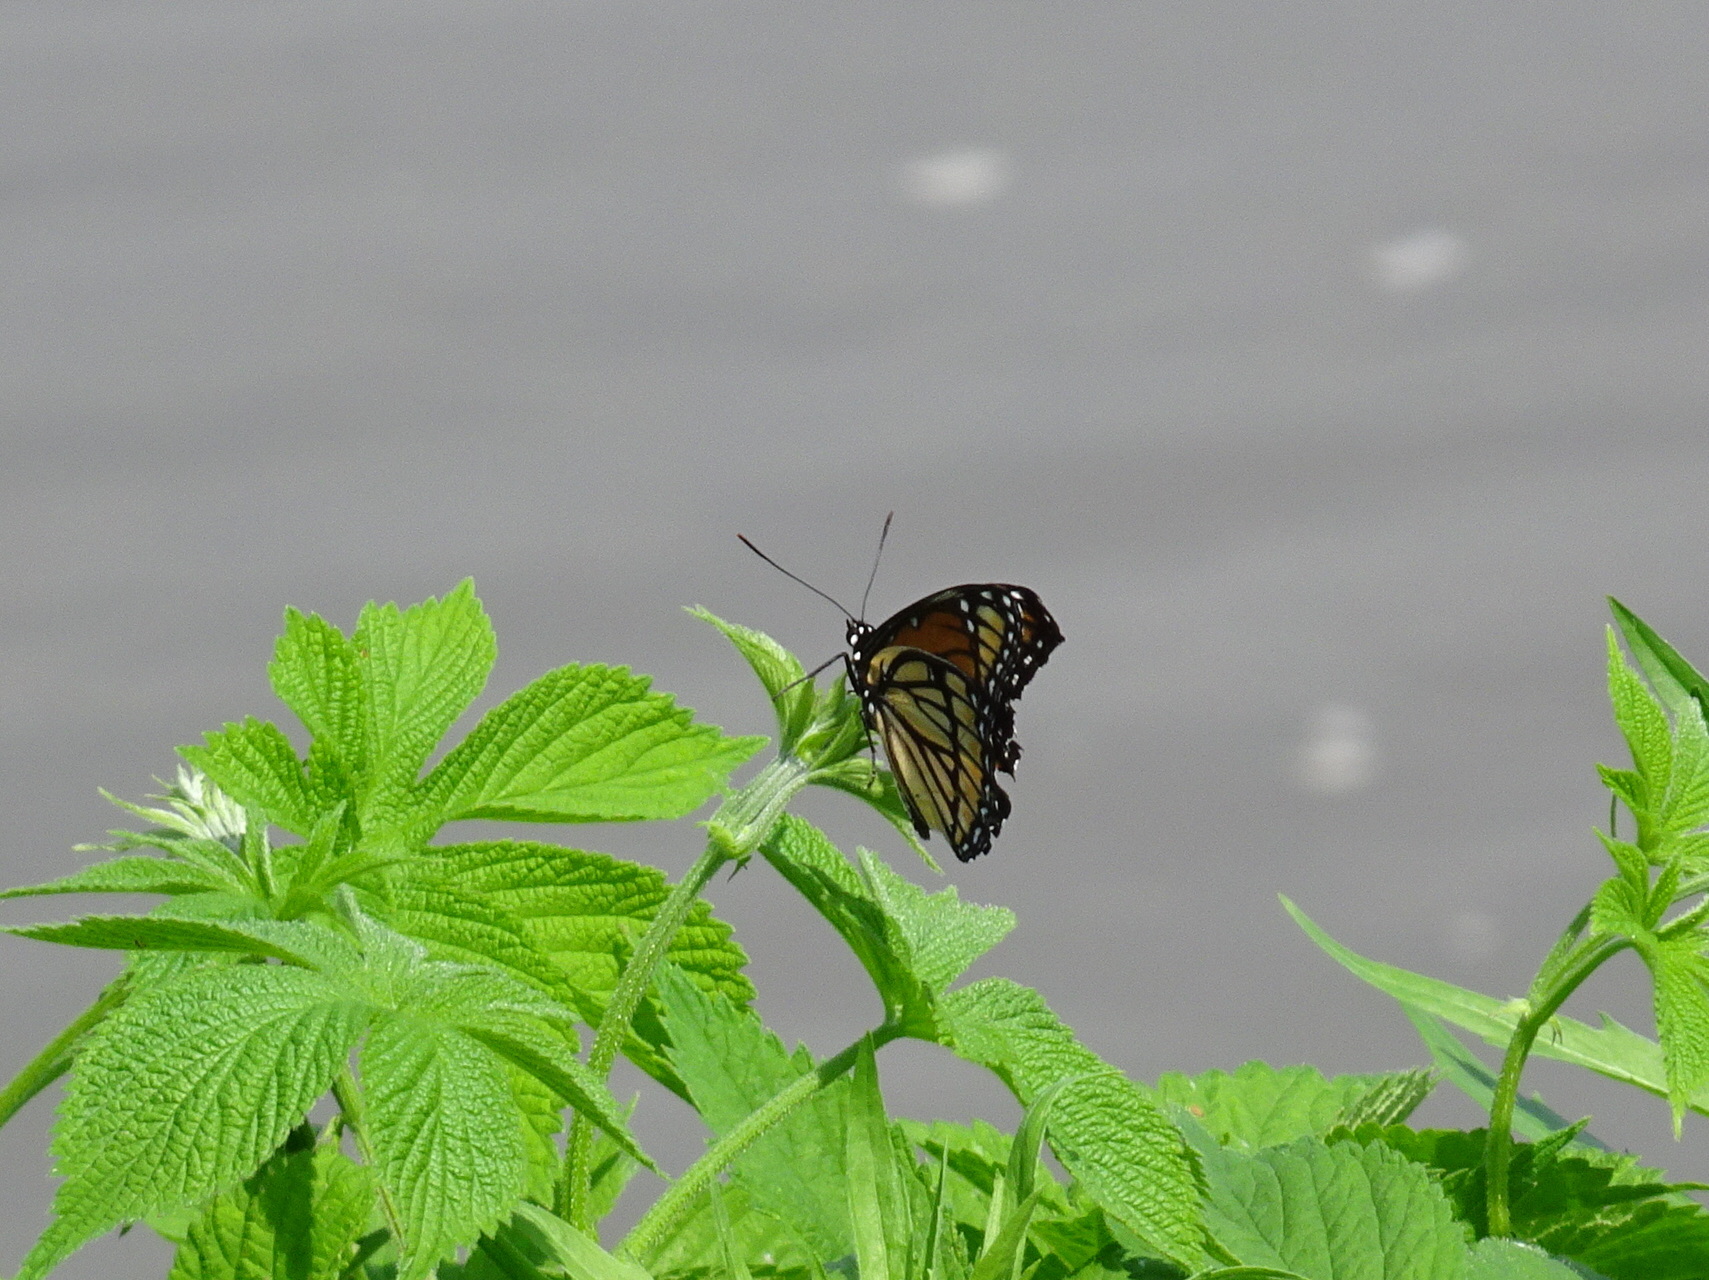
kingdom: Animalia
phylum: Arthropoda
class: Insecta
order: Lepidoptera
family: Nymphalidae
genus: Limenitis
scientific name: Limenitis archippus
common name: Viceroy
